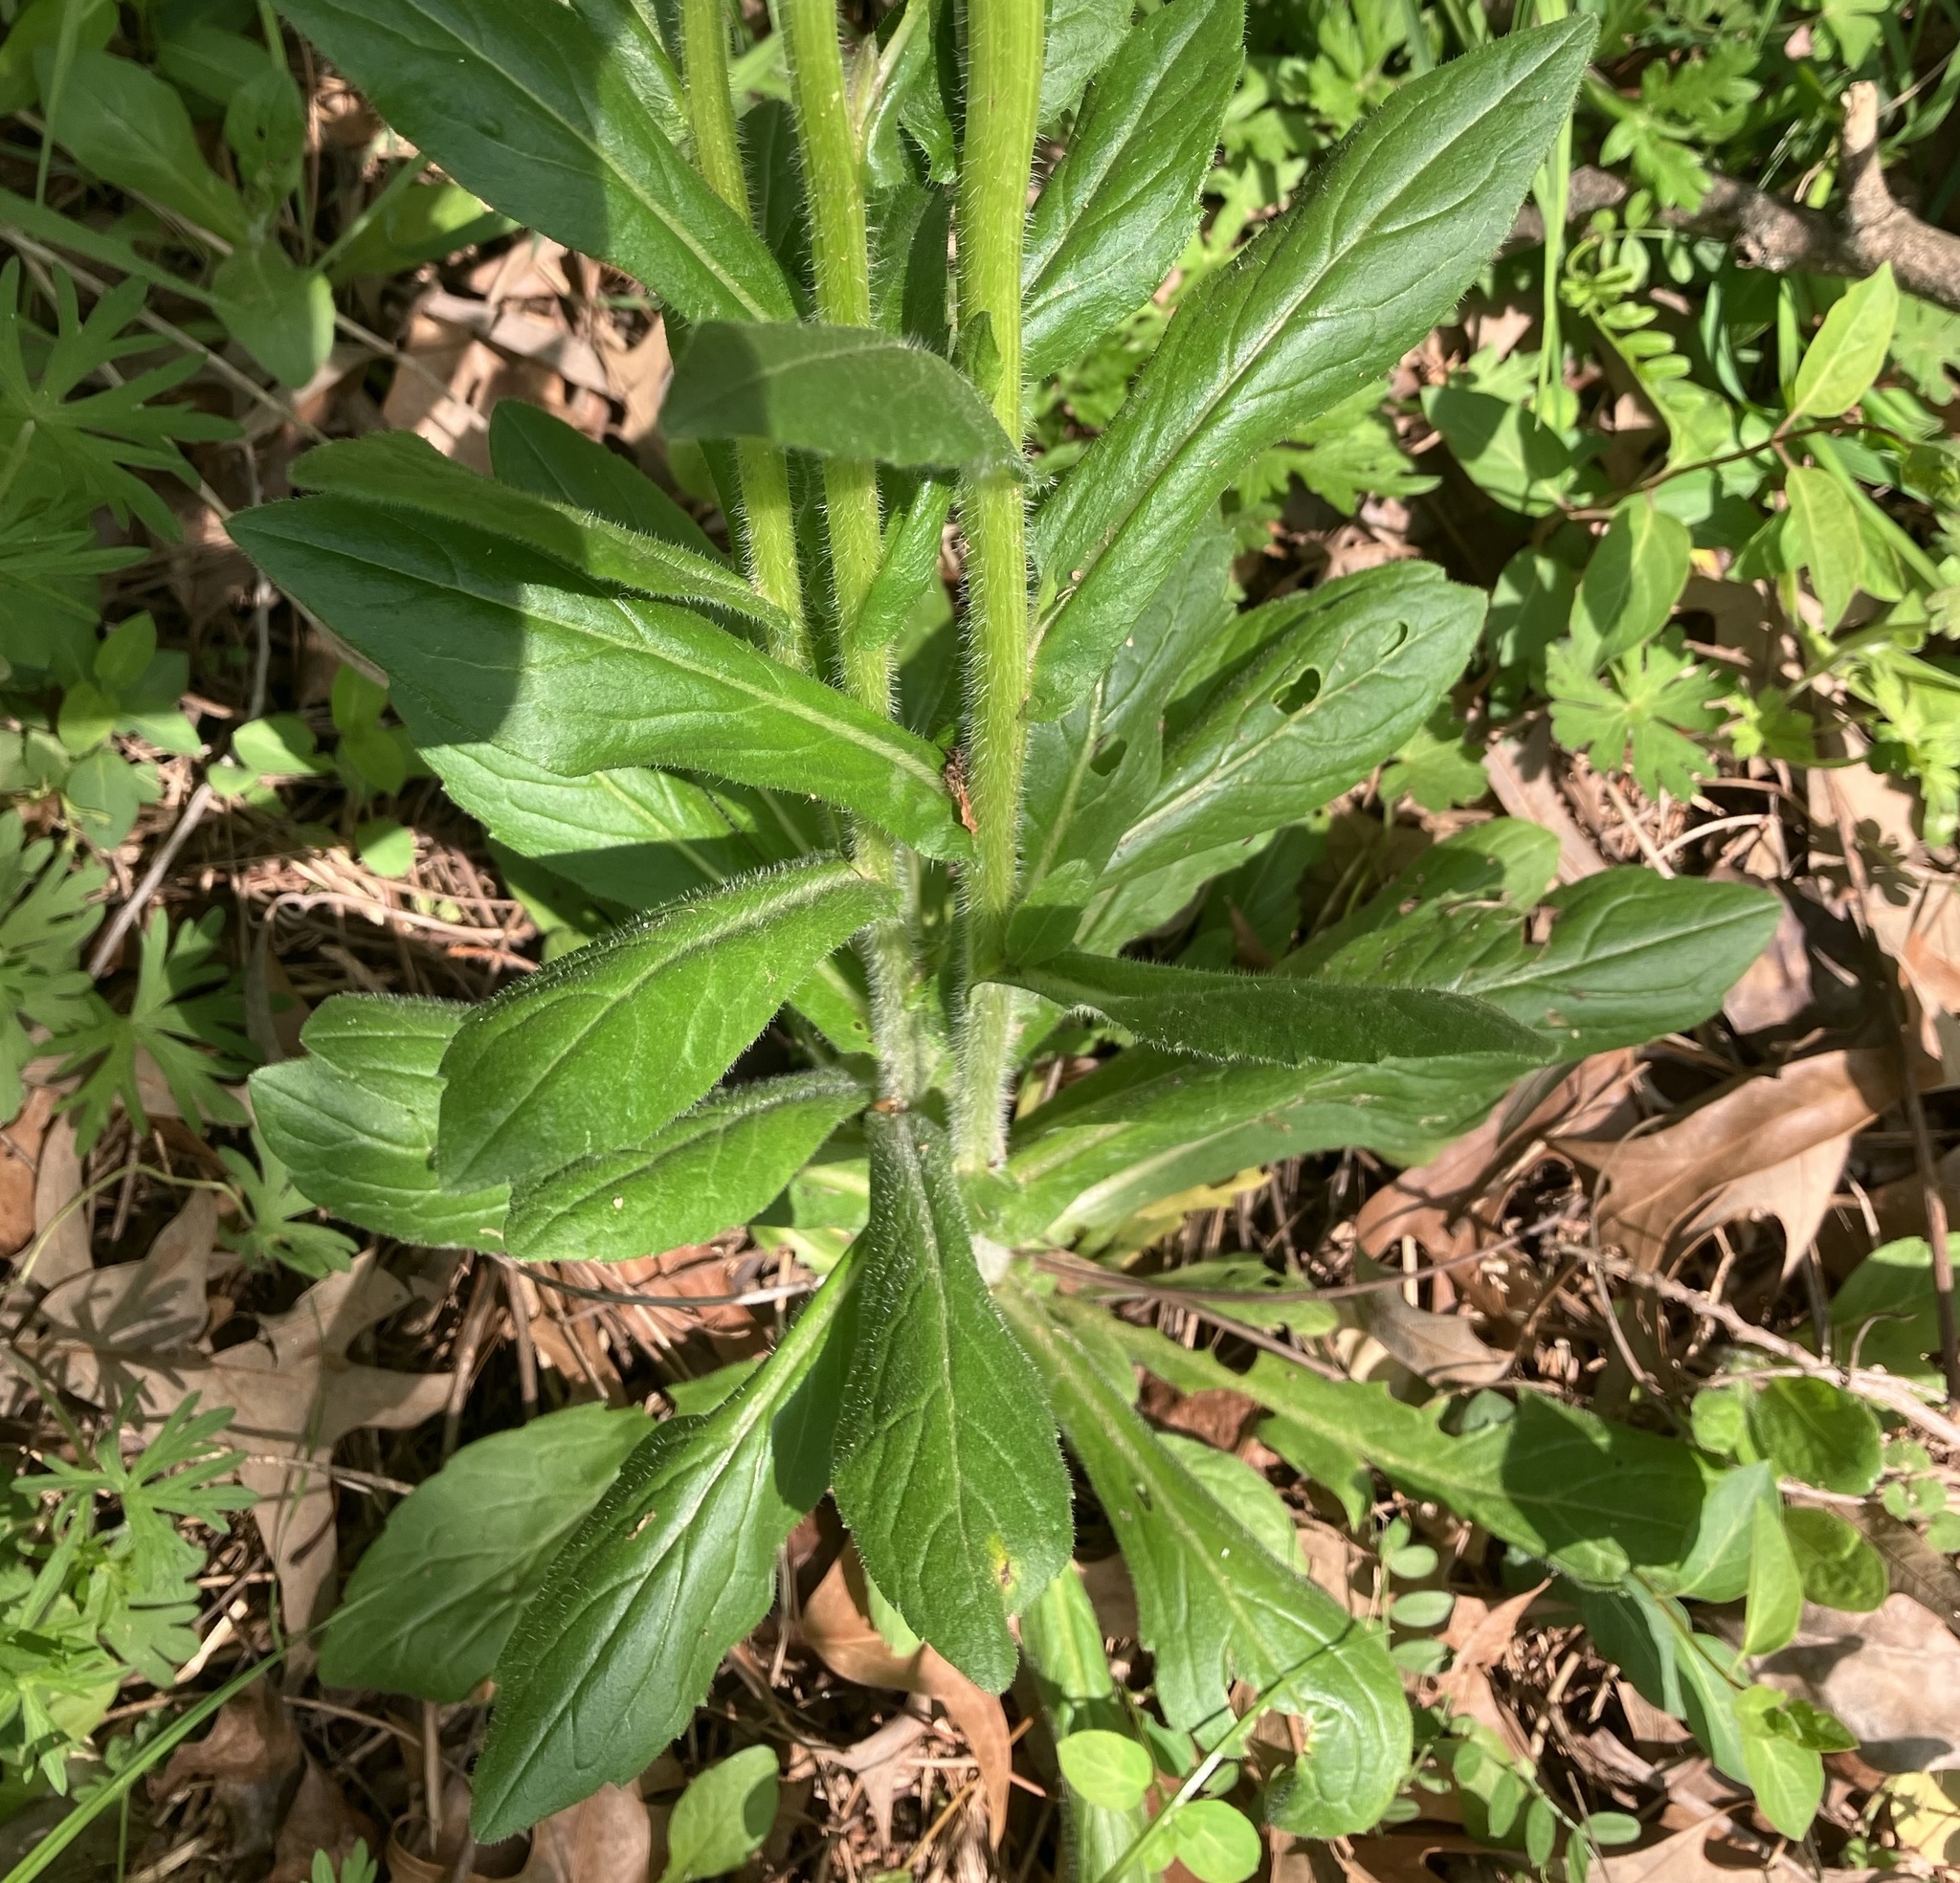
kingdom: Plantae
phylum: Tracheophyta
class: Magnoliopsida
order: Asterales
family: Asteraceae
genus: Erigeron
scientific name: Erigeron philadelphicus
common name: Robin's-plantain
